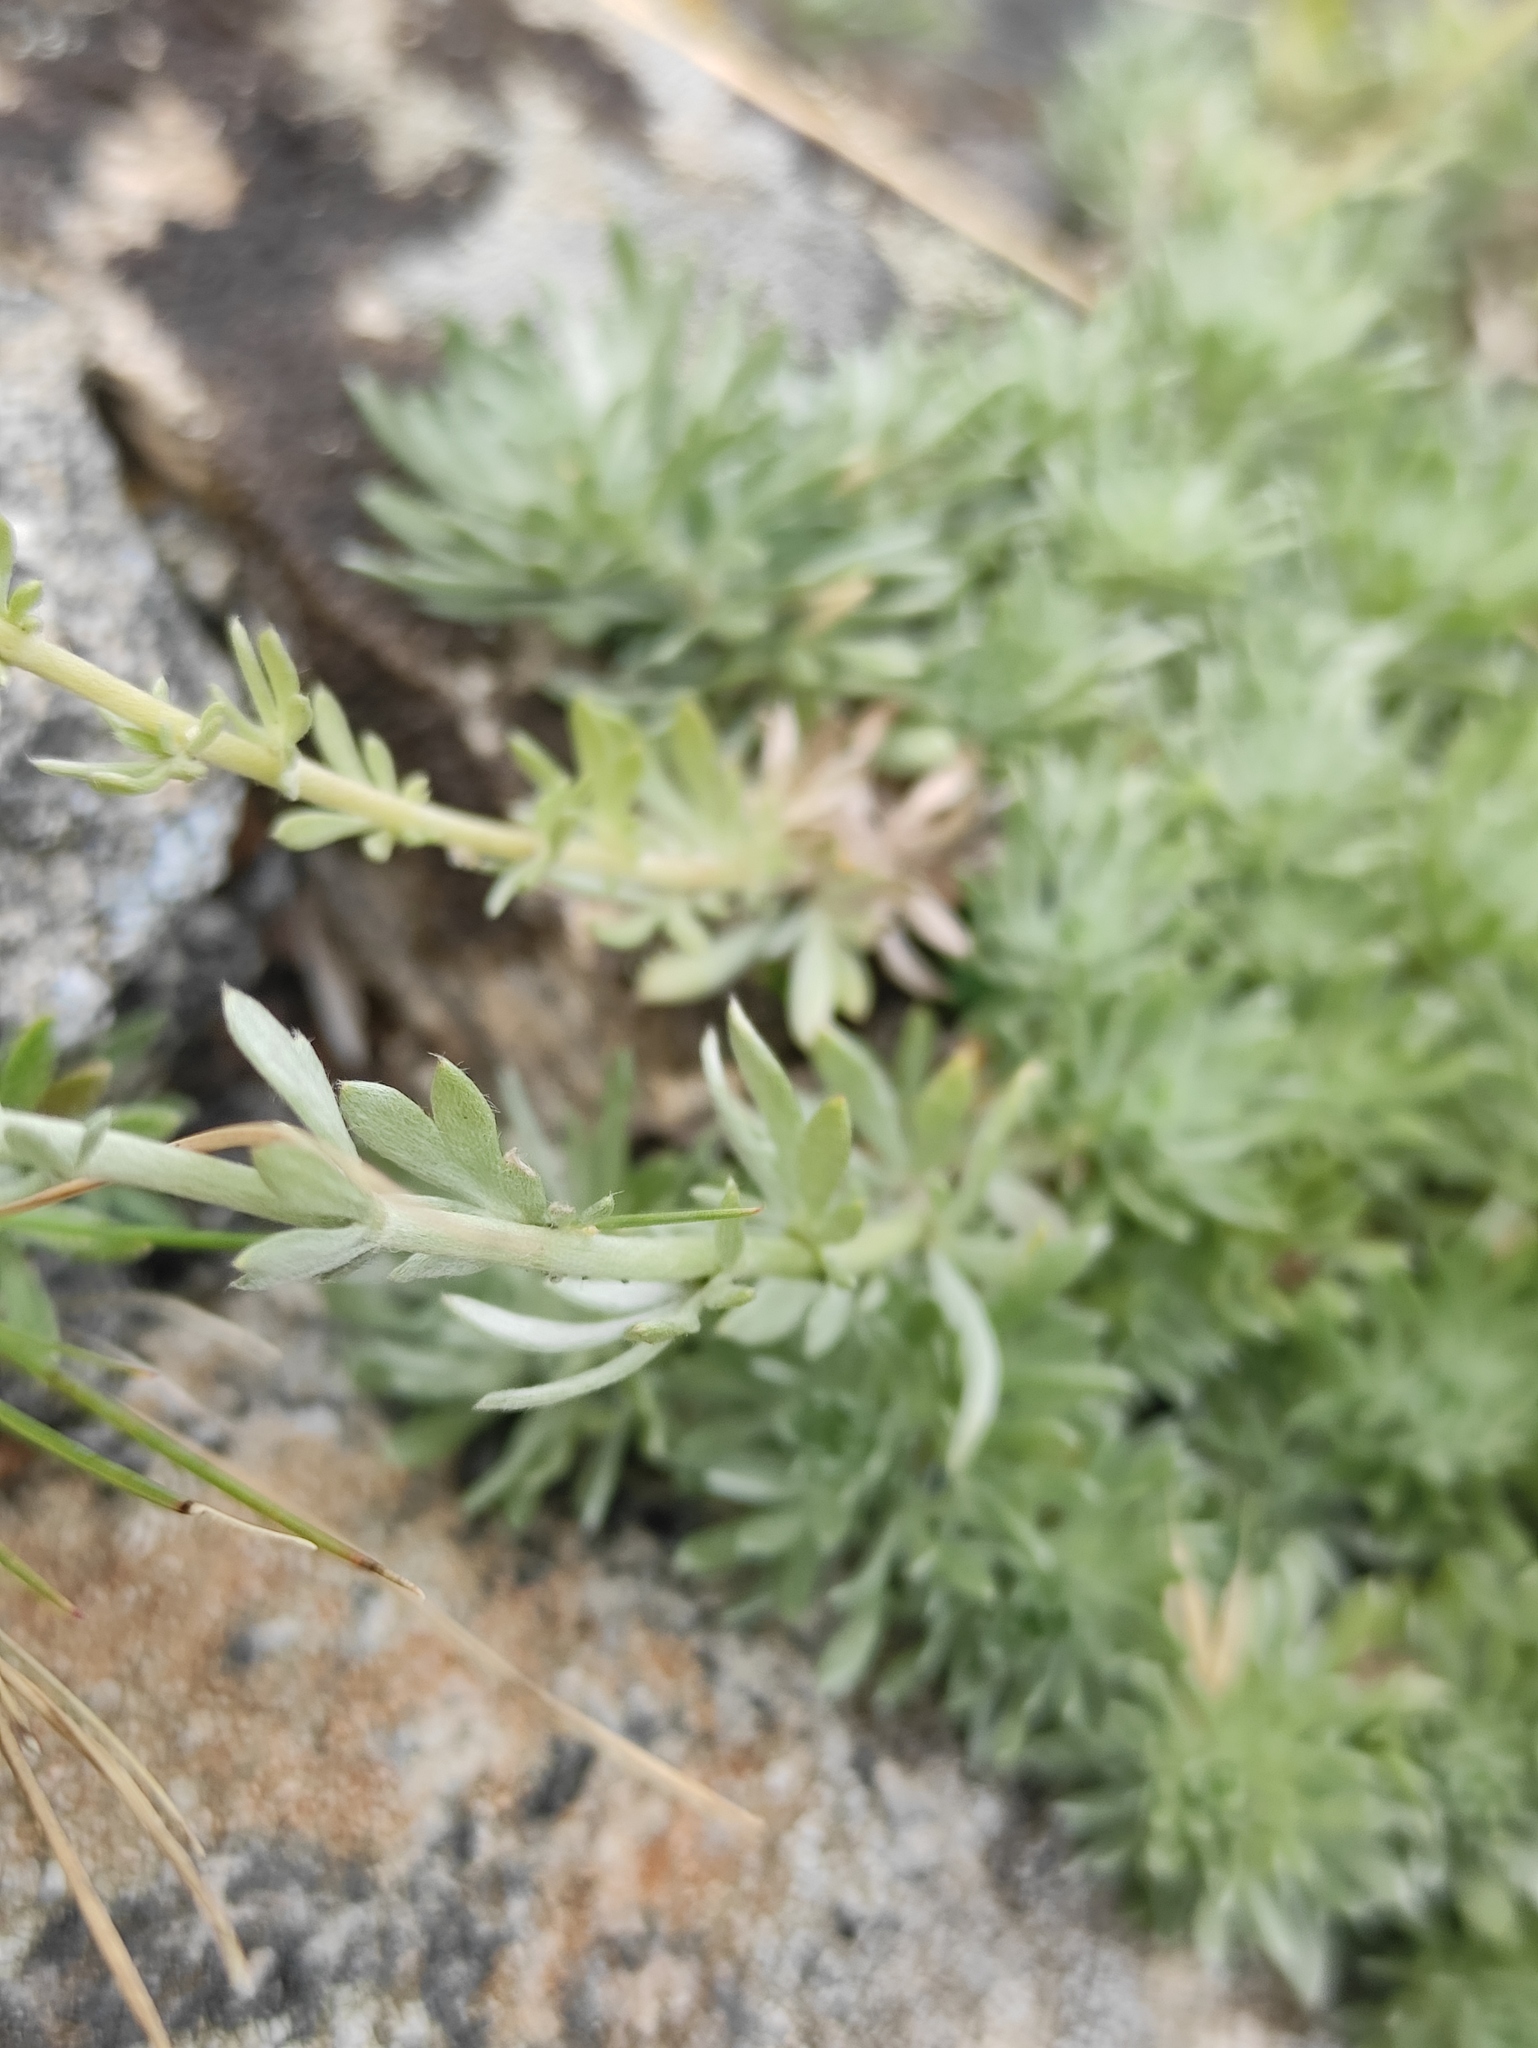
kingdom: Plantae
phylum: Tracheophyta
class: Magnoliopsida
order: Asterales
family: Asteraceae
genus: Artemisia
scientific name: Artemisia cuspidata
